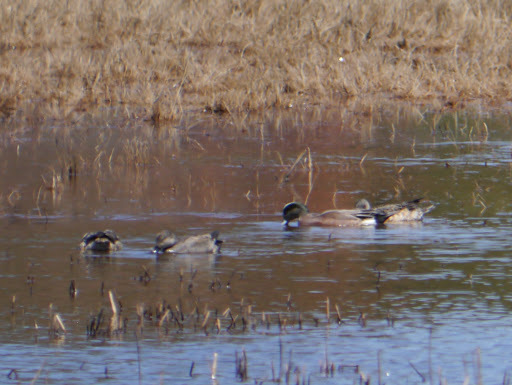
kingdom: Animalia
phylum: Chordata
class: Aves
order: Anseriformes
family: Anatidae
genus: Mareca
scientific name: Mareca americana
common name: American wigeon
